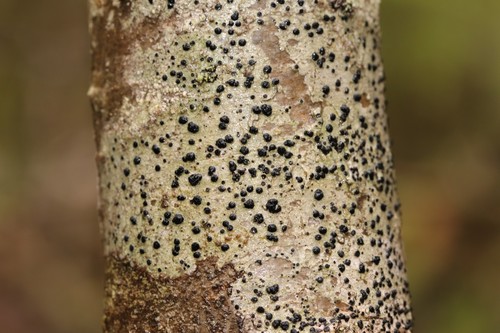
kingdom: Fungi
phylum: Ascomycota
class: Lecanoromycetes
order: Lecanorales
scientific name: Lecanorales
